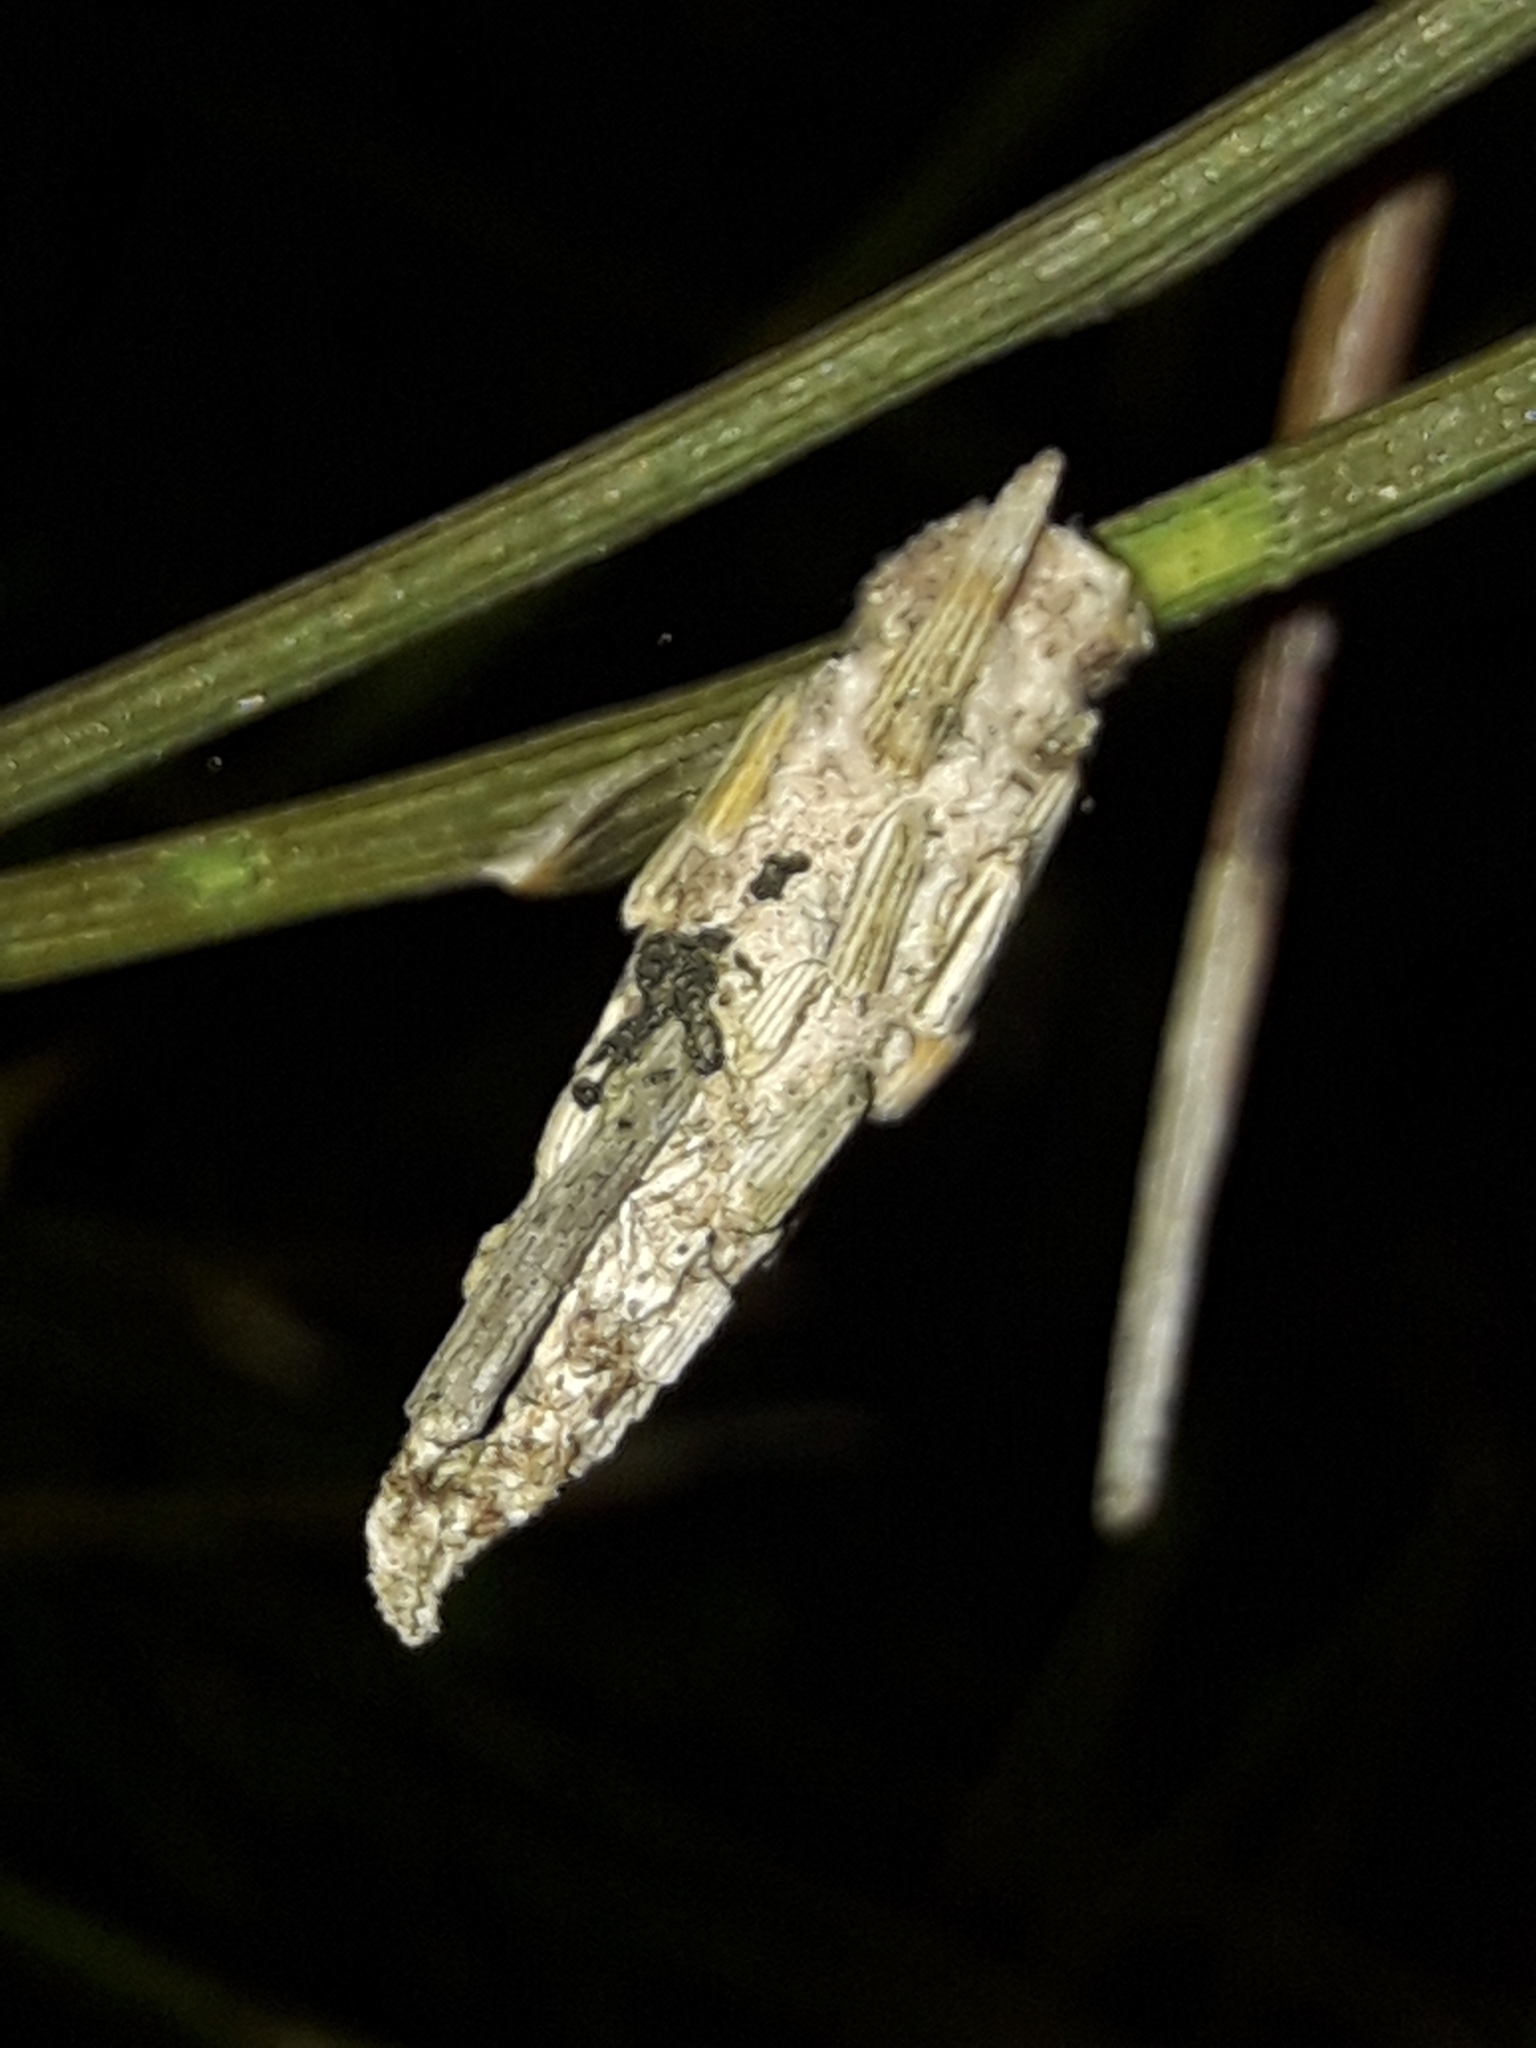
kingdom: Animalia
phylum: Arthropoda
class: Insecta
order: Lepidoptera
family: Psychidae
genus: Liothula
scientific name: Liothula omnivora
